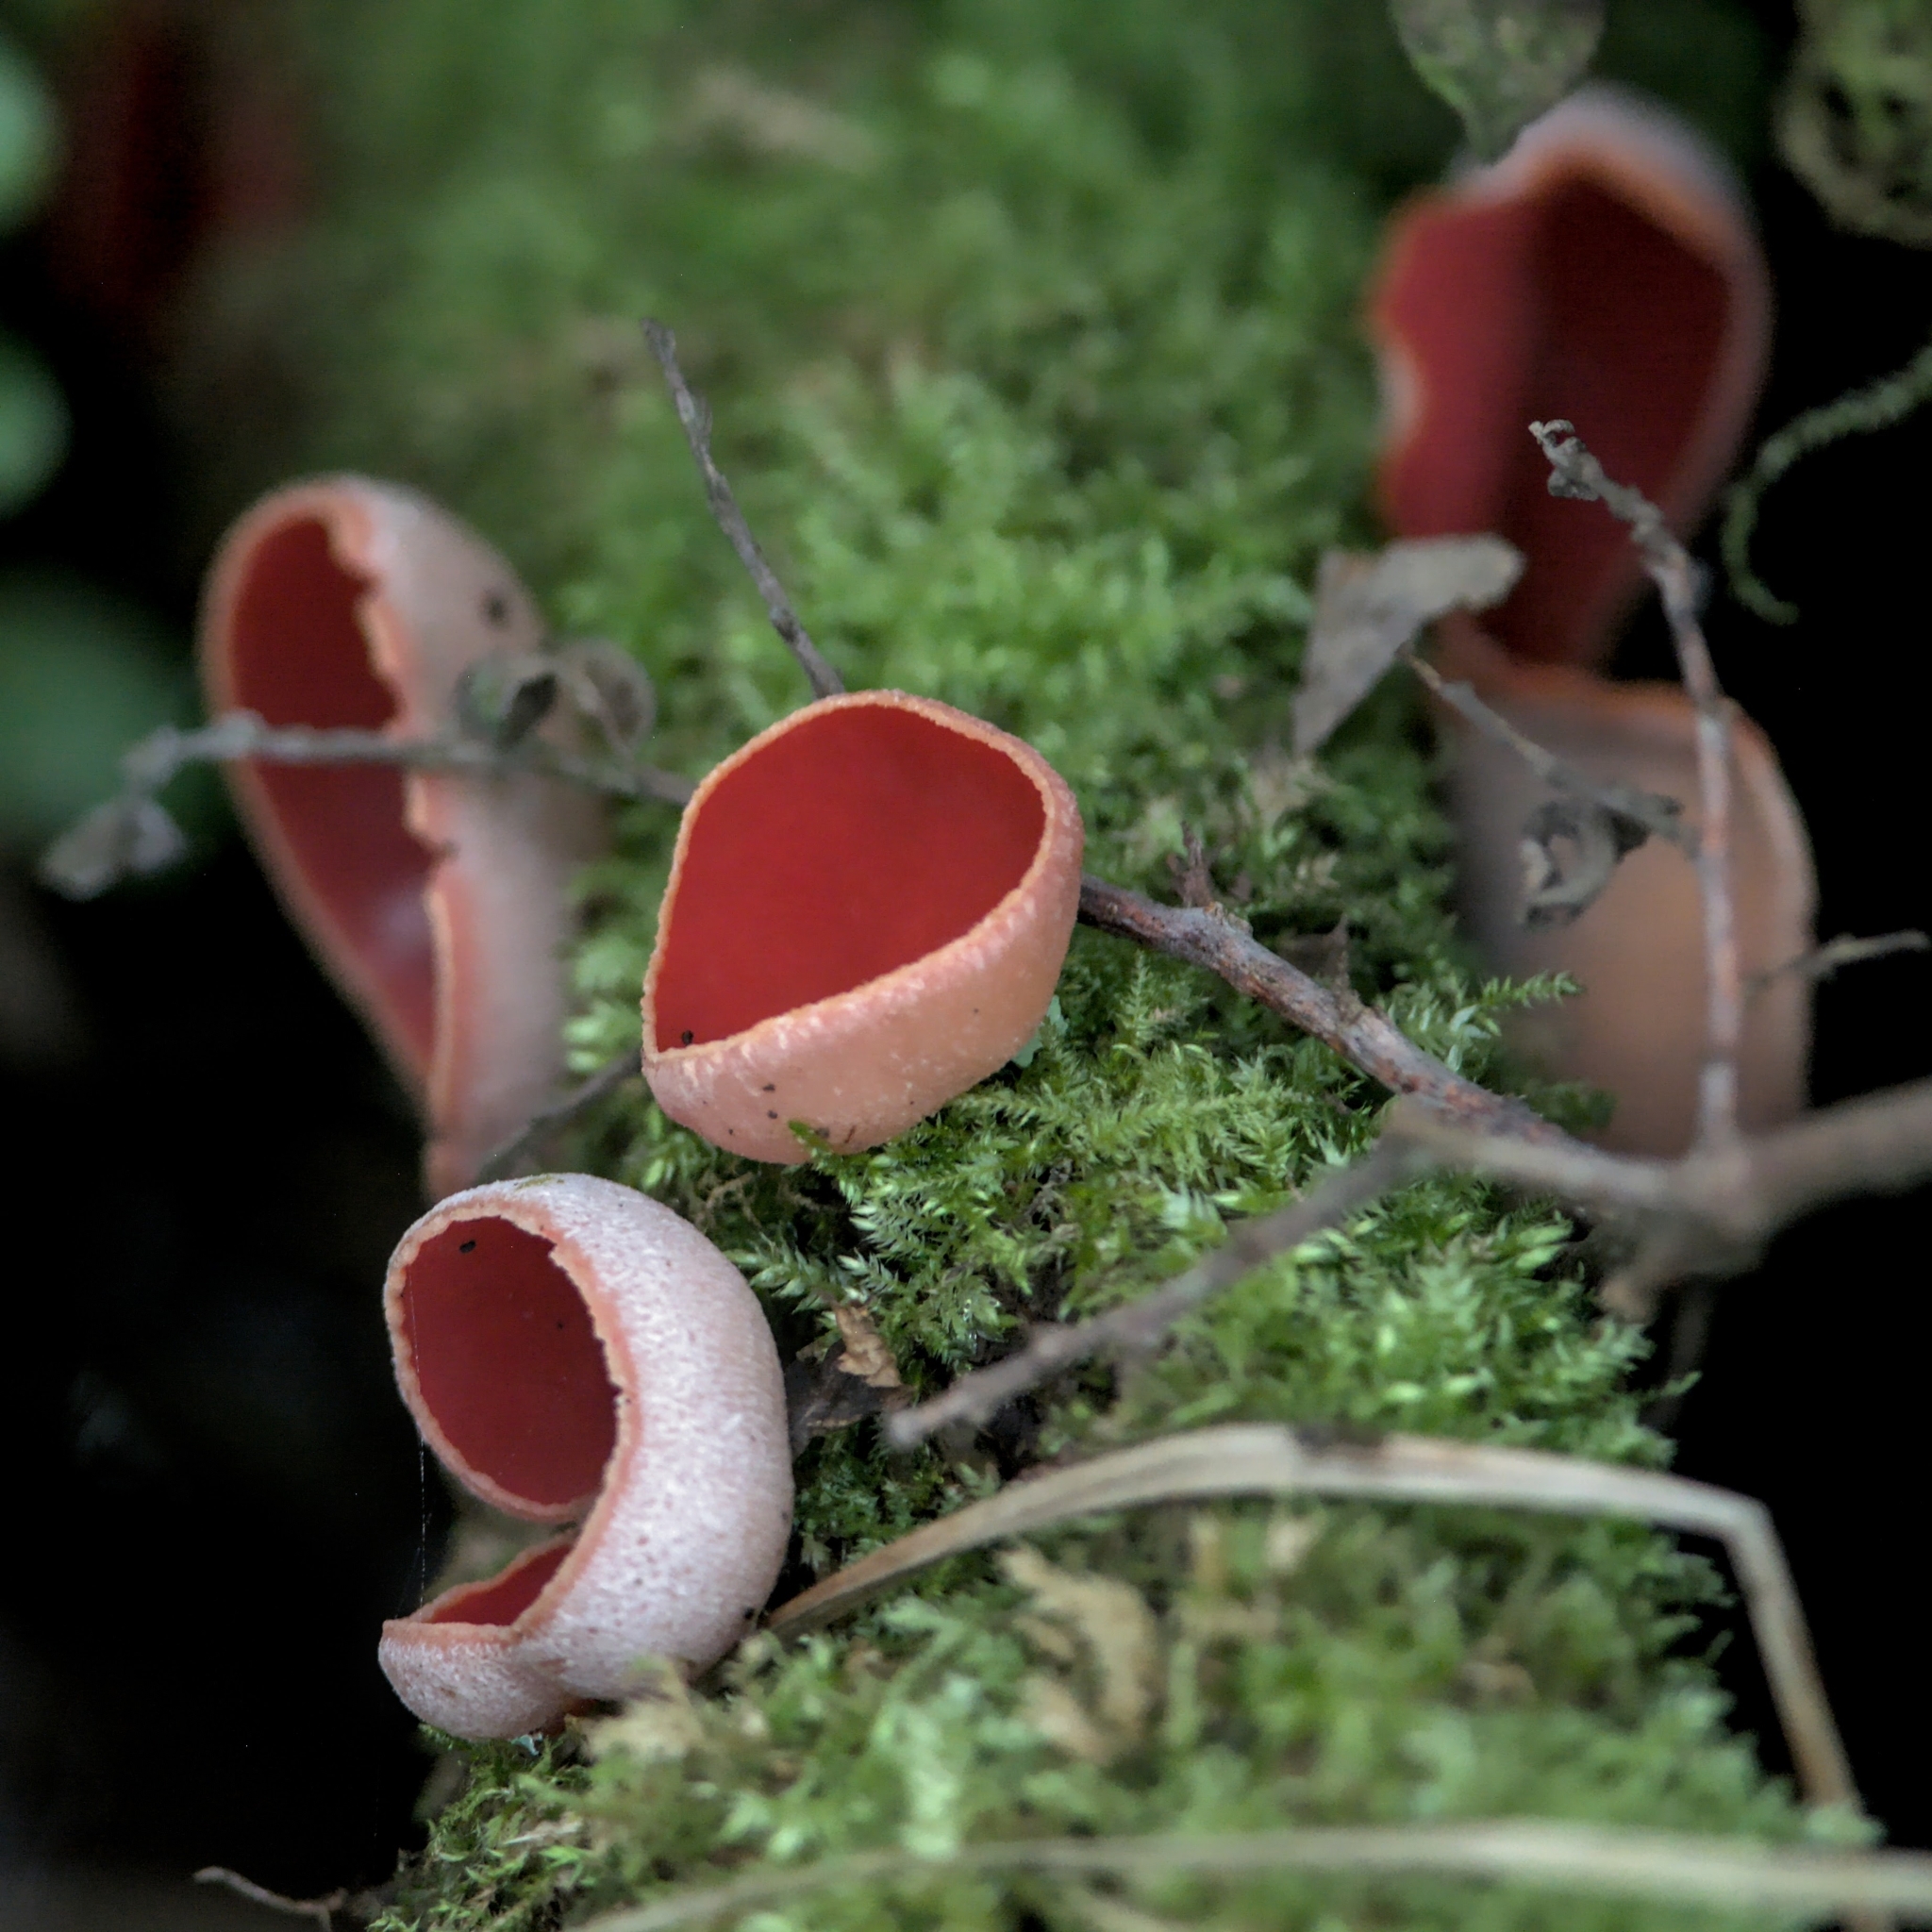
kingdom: Fungi
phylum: Ascomycota
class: Pezizomycetes
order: Pezizales
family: Sarcoscyphaceae
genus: Sarcoscypha
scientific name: Sarcoscypha
